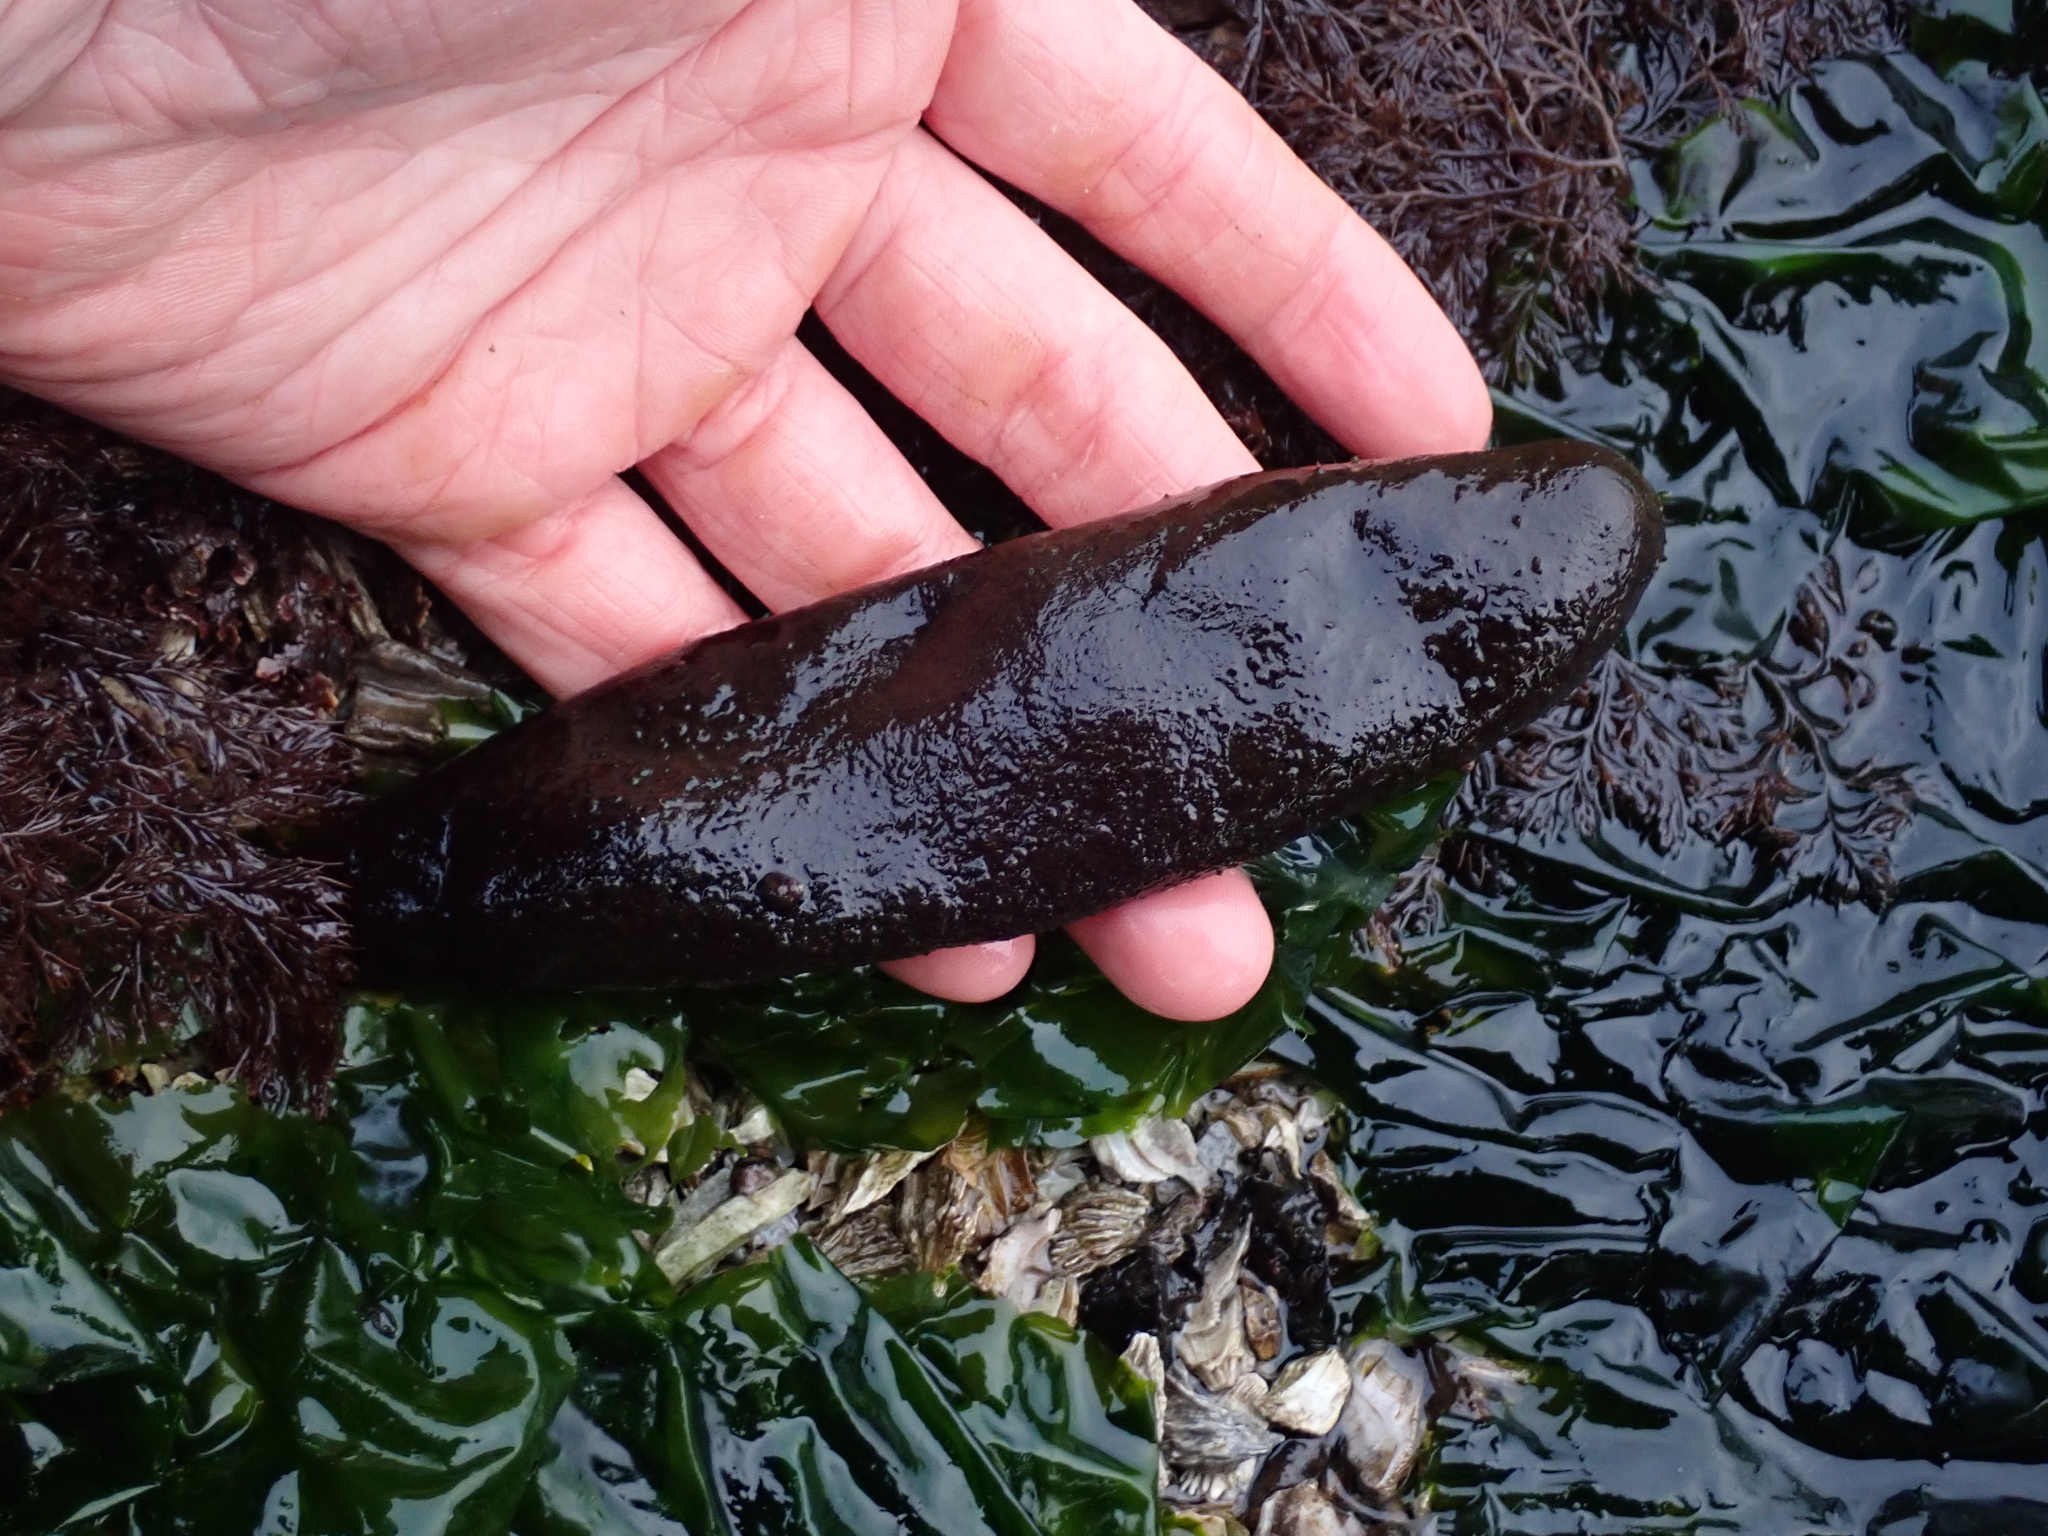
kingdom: Plantae
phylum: Rhodophyta
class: Florideophyceae
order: Palmariales
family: Palmariaceae
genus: Halosaccion
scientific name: Halosaccion glandiforme
